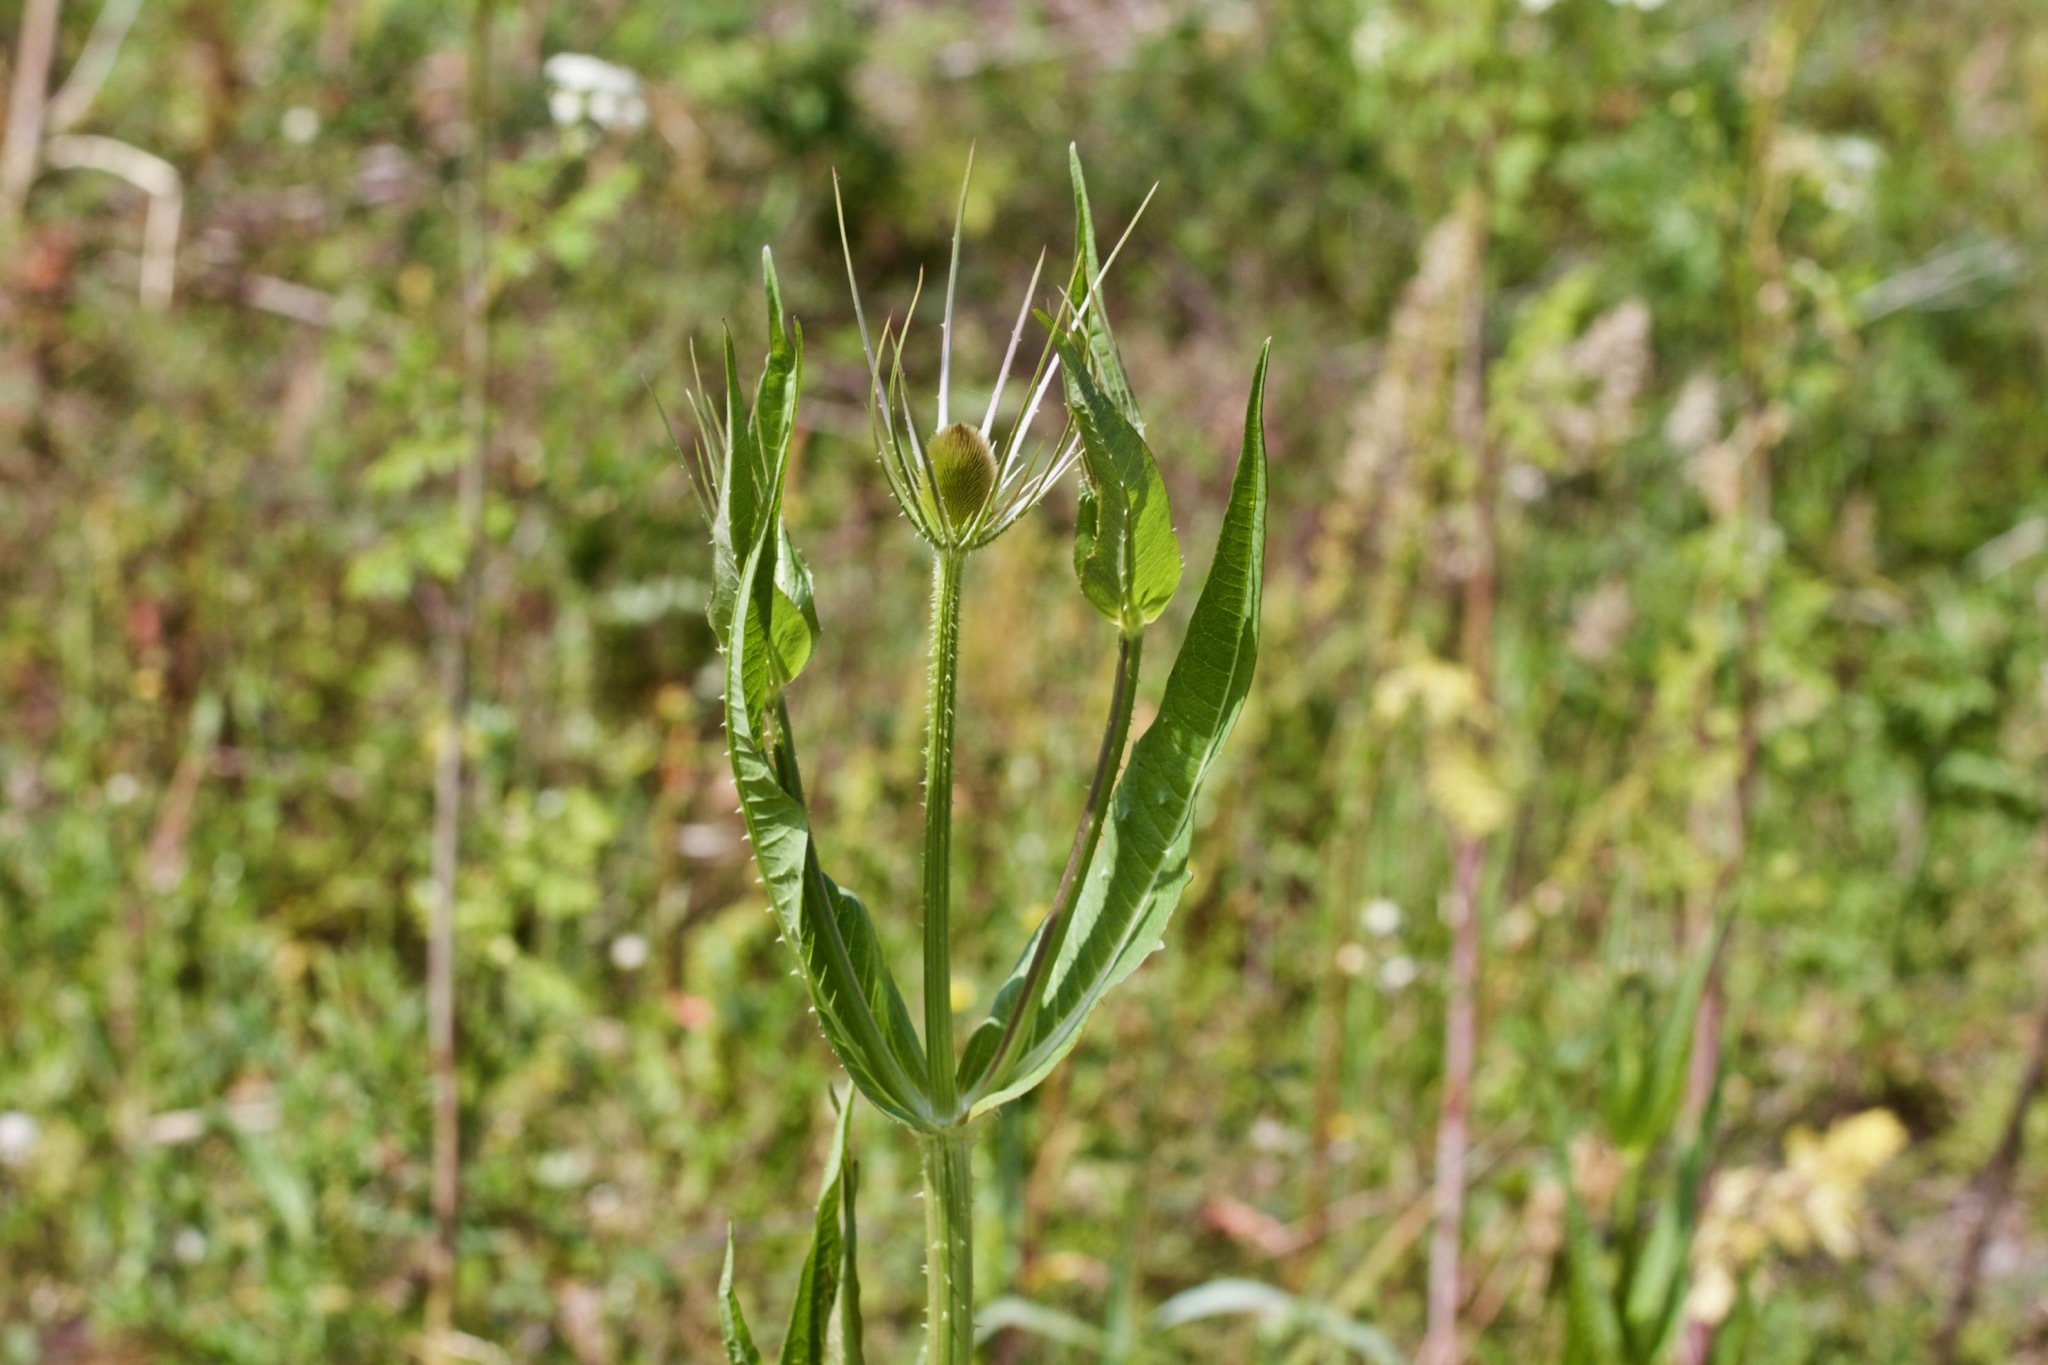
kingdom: Plantae
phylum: Tracheophyta
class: Magnoliopsida
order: Dipsacales
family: Caprifoliaceae
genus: Dipsacus
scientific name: Dipsacus fullonum
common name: Teasel
